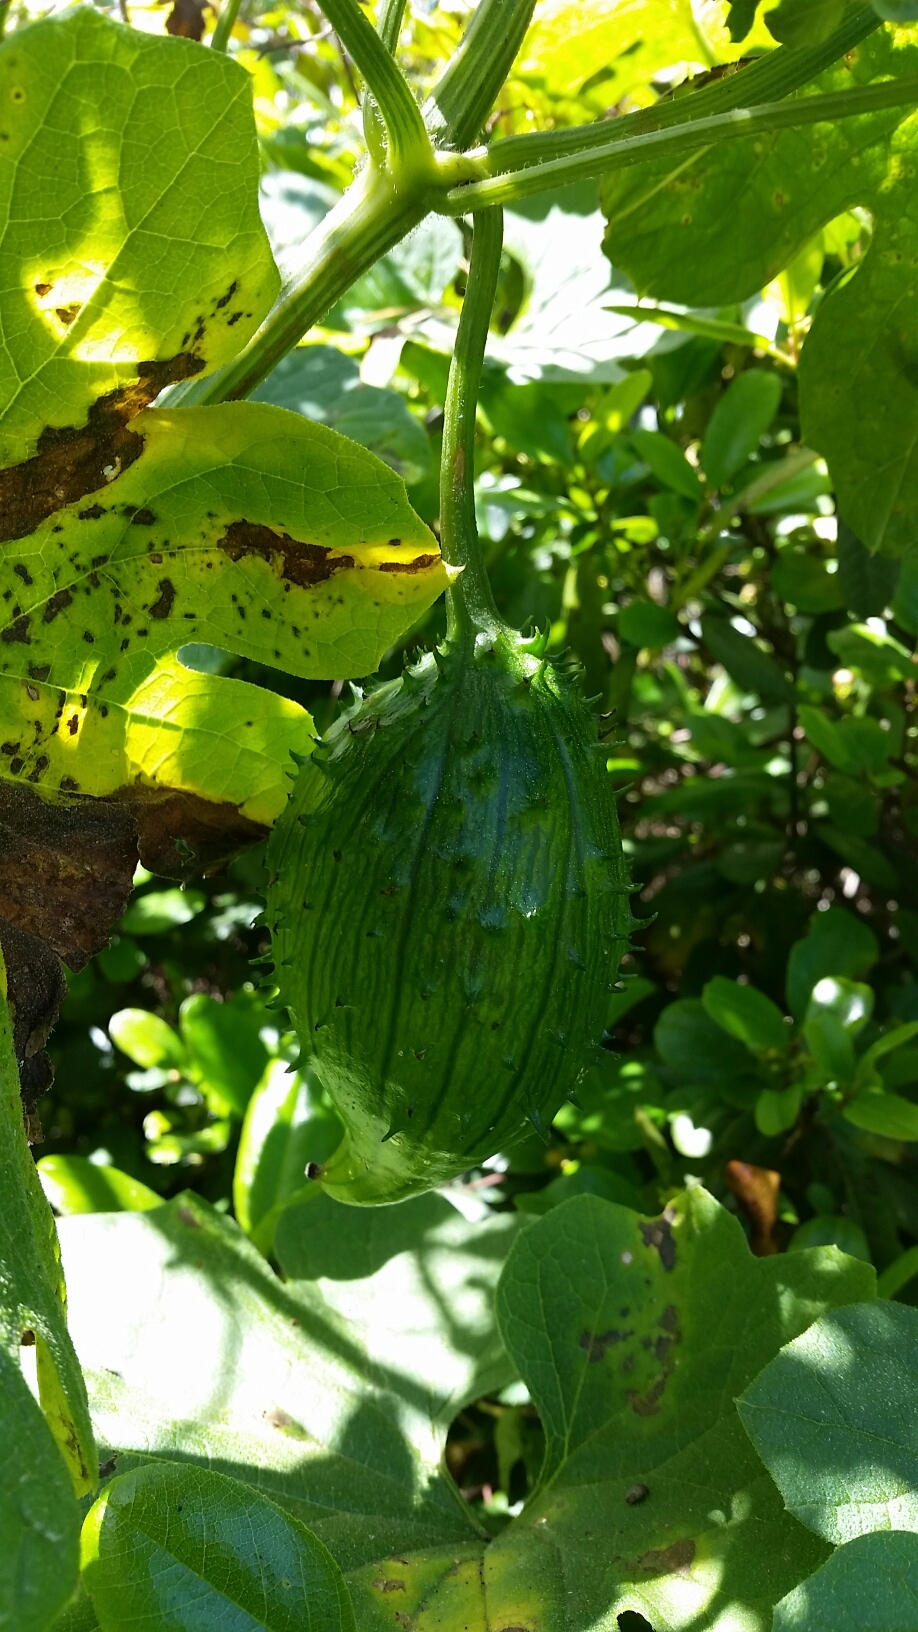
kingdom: Plantae
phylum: Tracheophyta
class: Magnoliopsida
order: Cucurbitales
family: Cucurbitaceae
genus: Marah
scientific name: Marah oregana
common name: Coastal manroot
